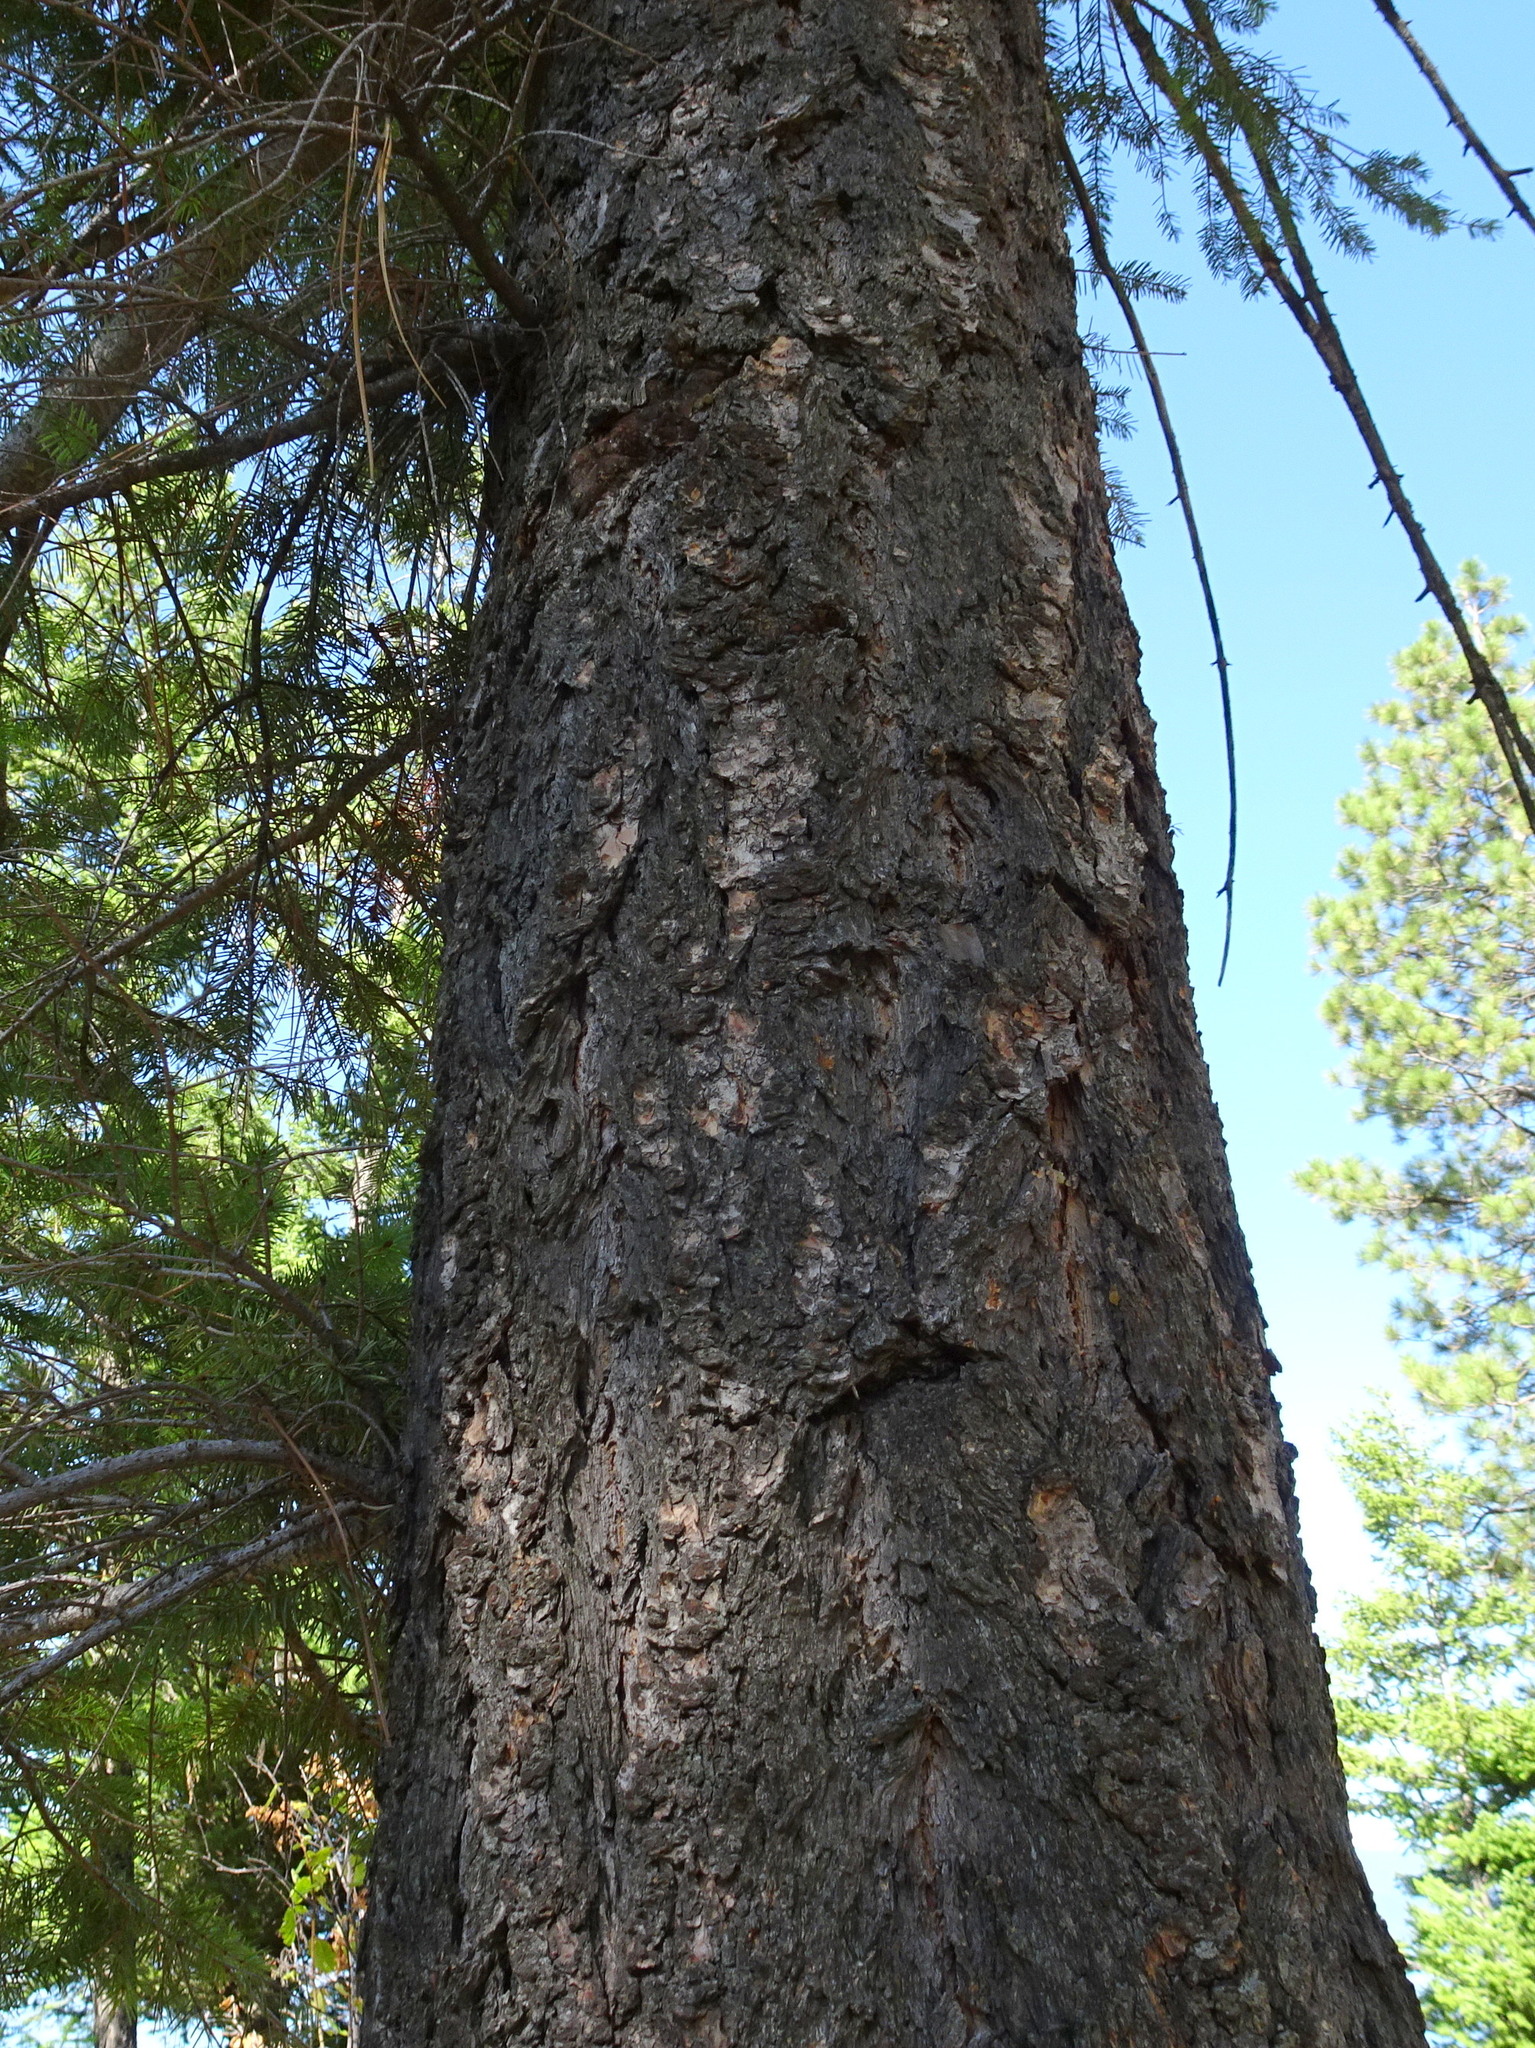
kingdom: Plantae
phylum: Tracheophyta
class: Pinopsida
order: Pinales
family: Pinaceae
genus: Pseudotsuga
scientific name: Pseudotsuga menziesii
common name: Douglas fir
